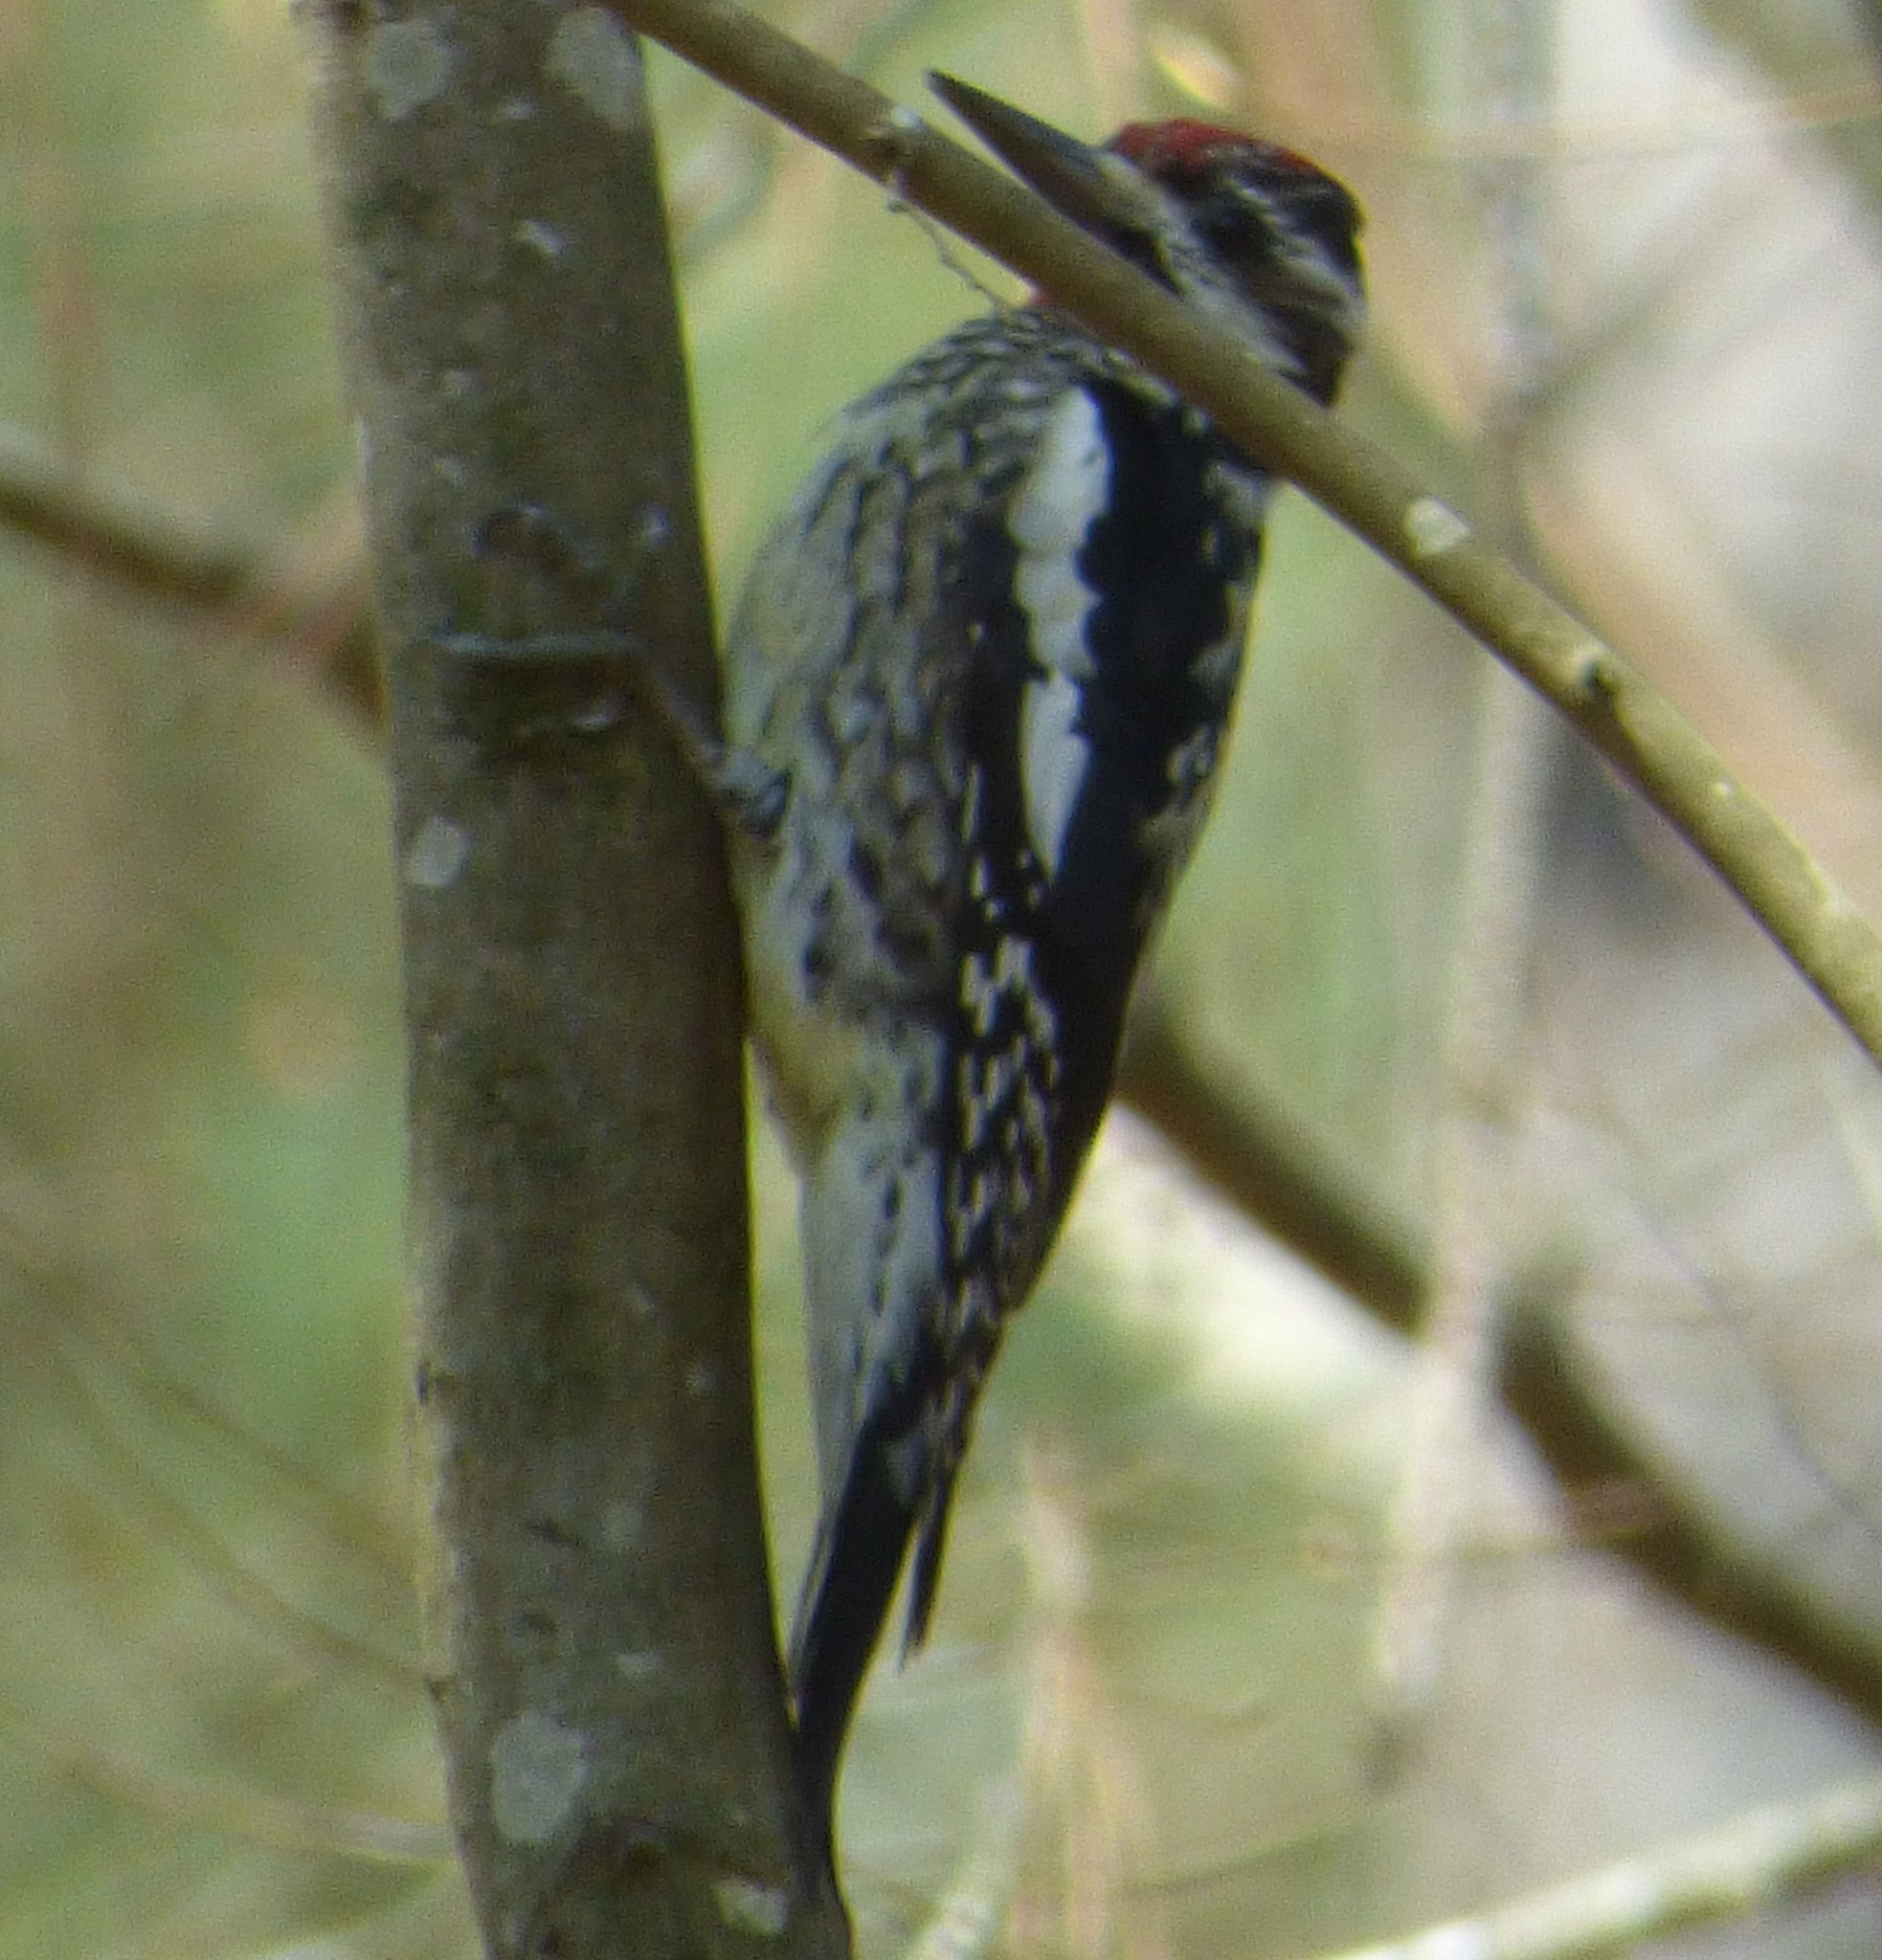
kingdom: Animalia
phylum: Chordata
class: Aves
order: Piciformes
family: Picidae
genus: Sphyrapicus
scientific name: Sphyrapicus varius
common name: Yellow-bellied sapsucker
